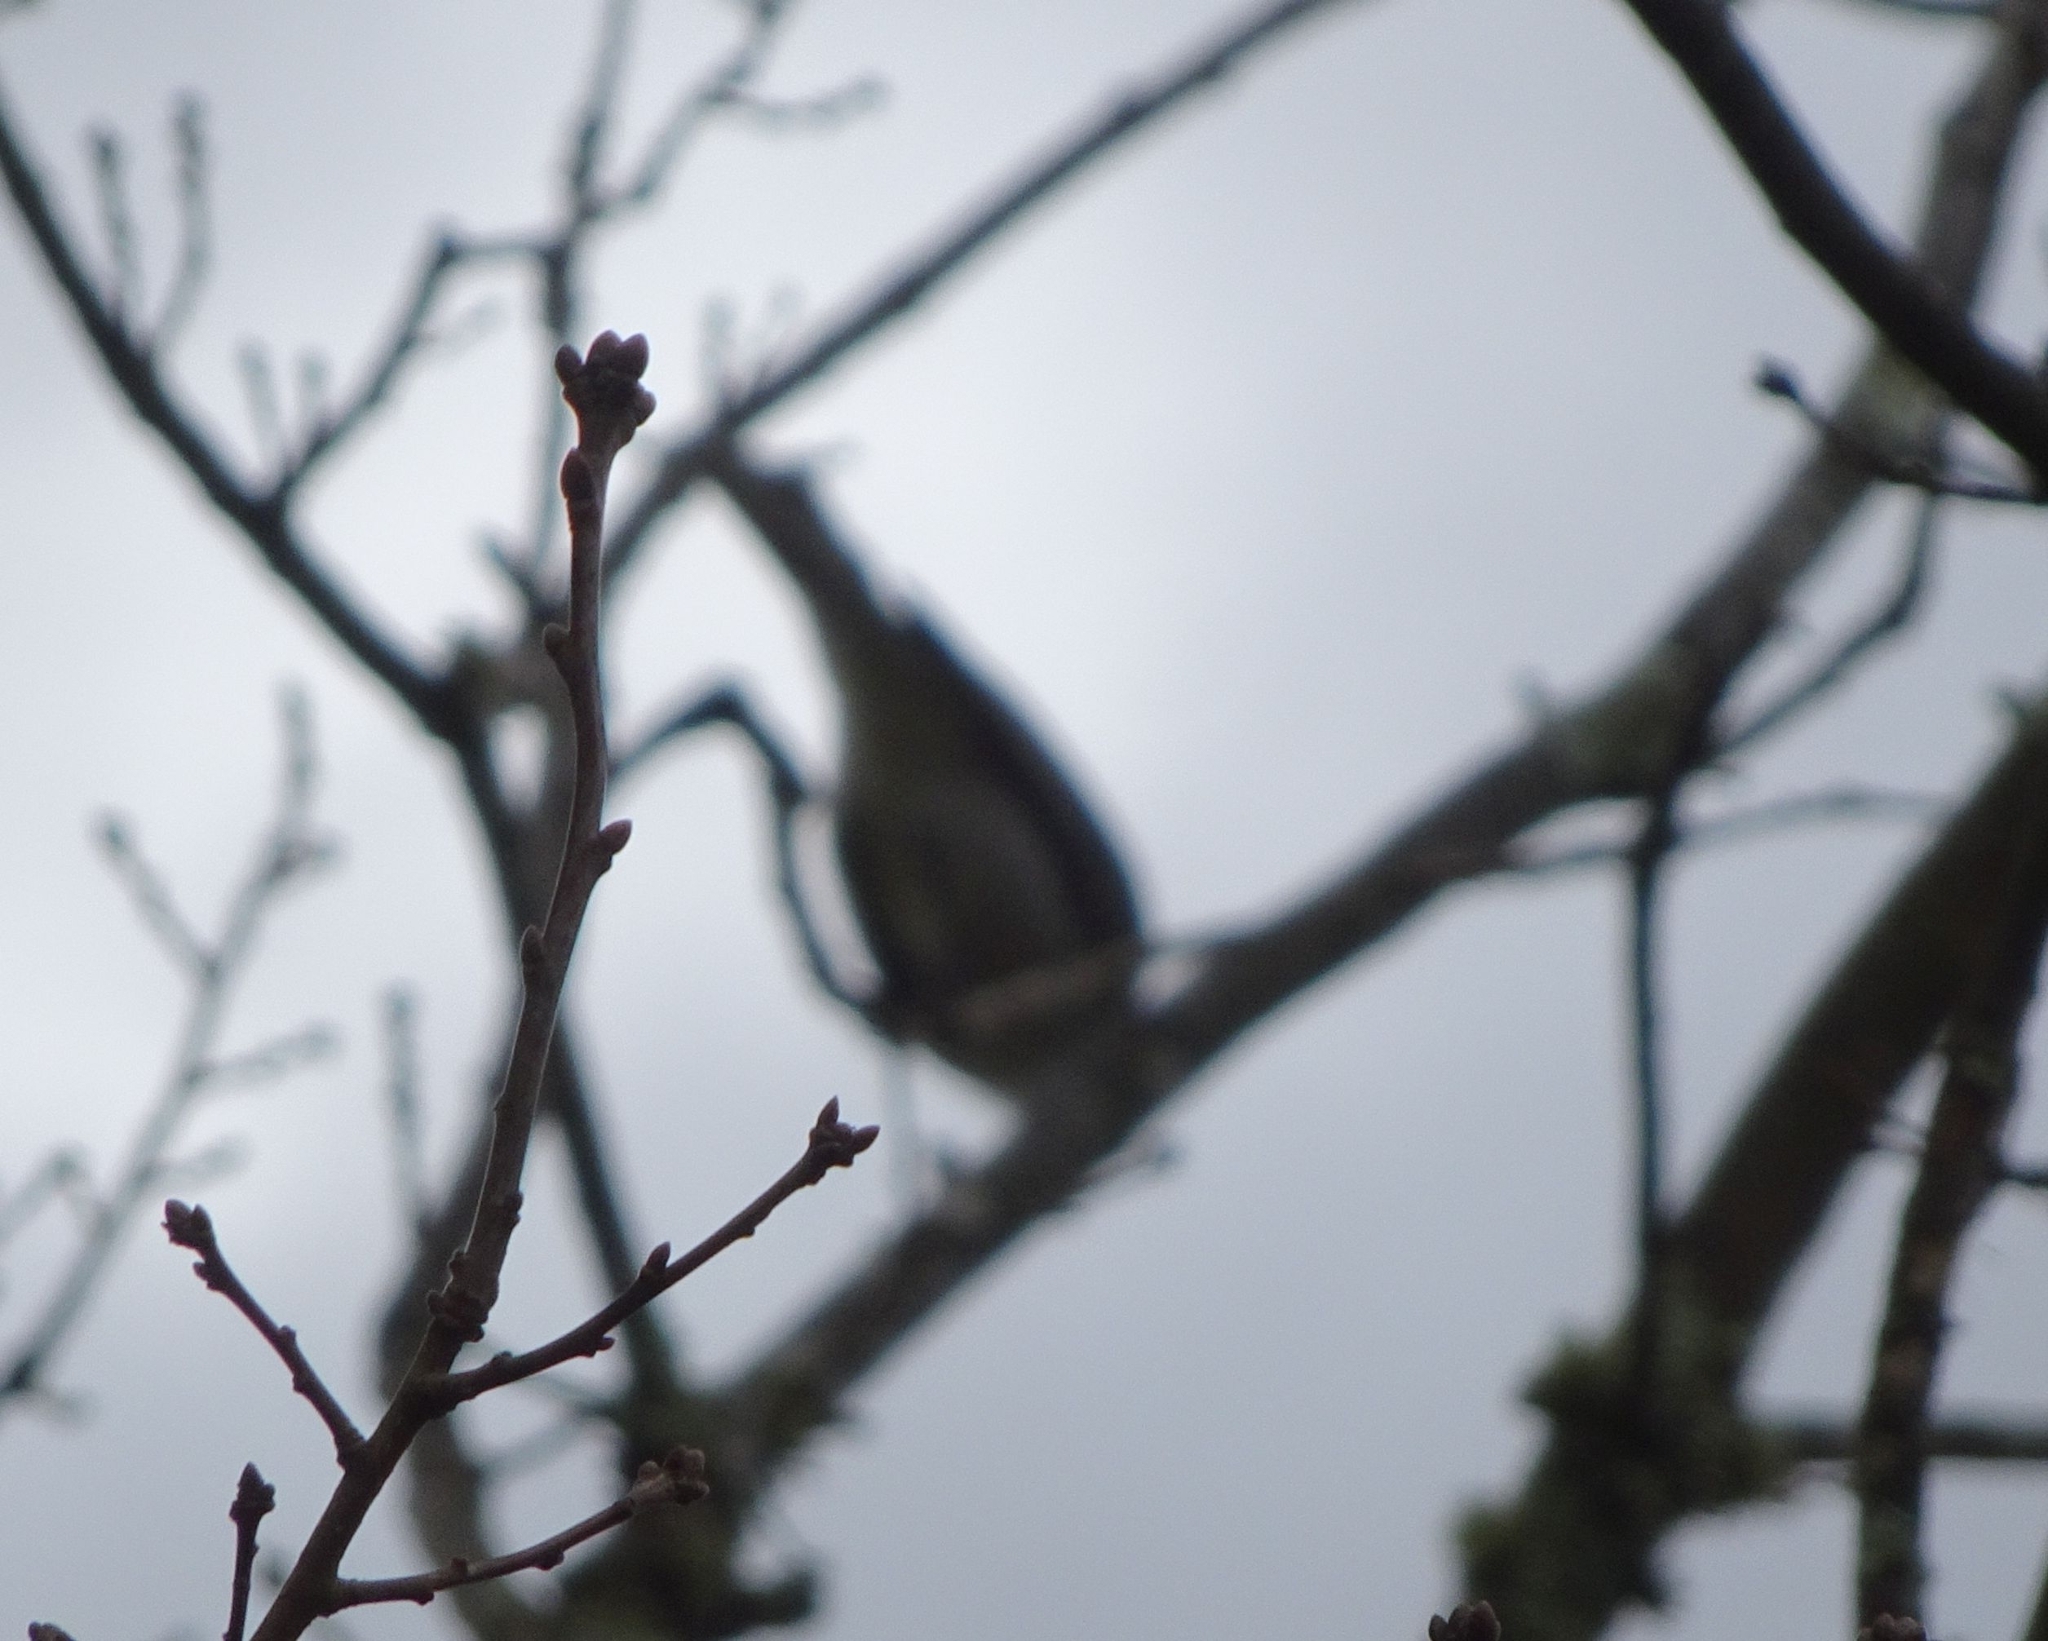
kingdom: Animalia
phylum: Chordata
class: Aves
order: Passeriformes
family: Pachycephalidae
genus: Colluricincla
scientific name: Colluricincla harmonica
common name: Grey shrikethrush
